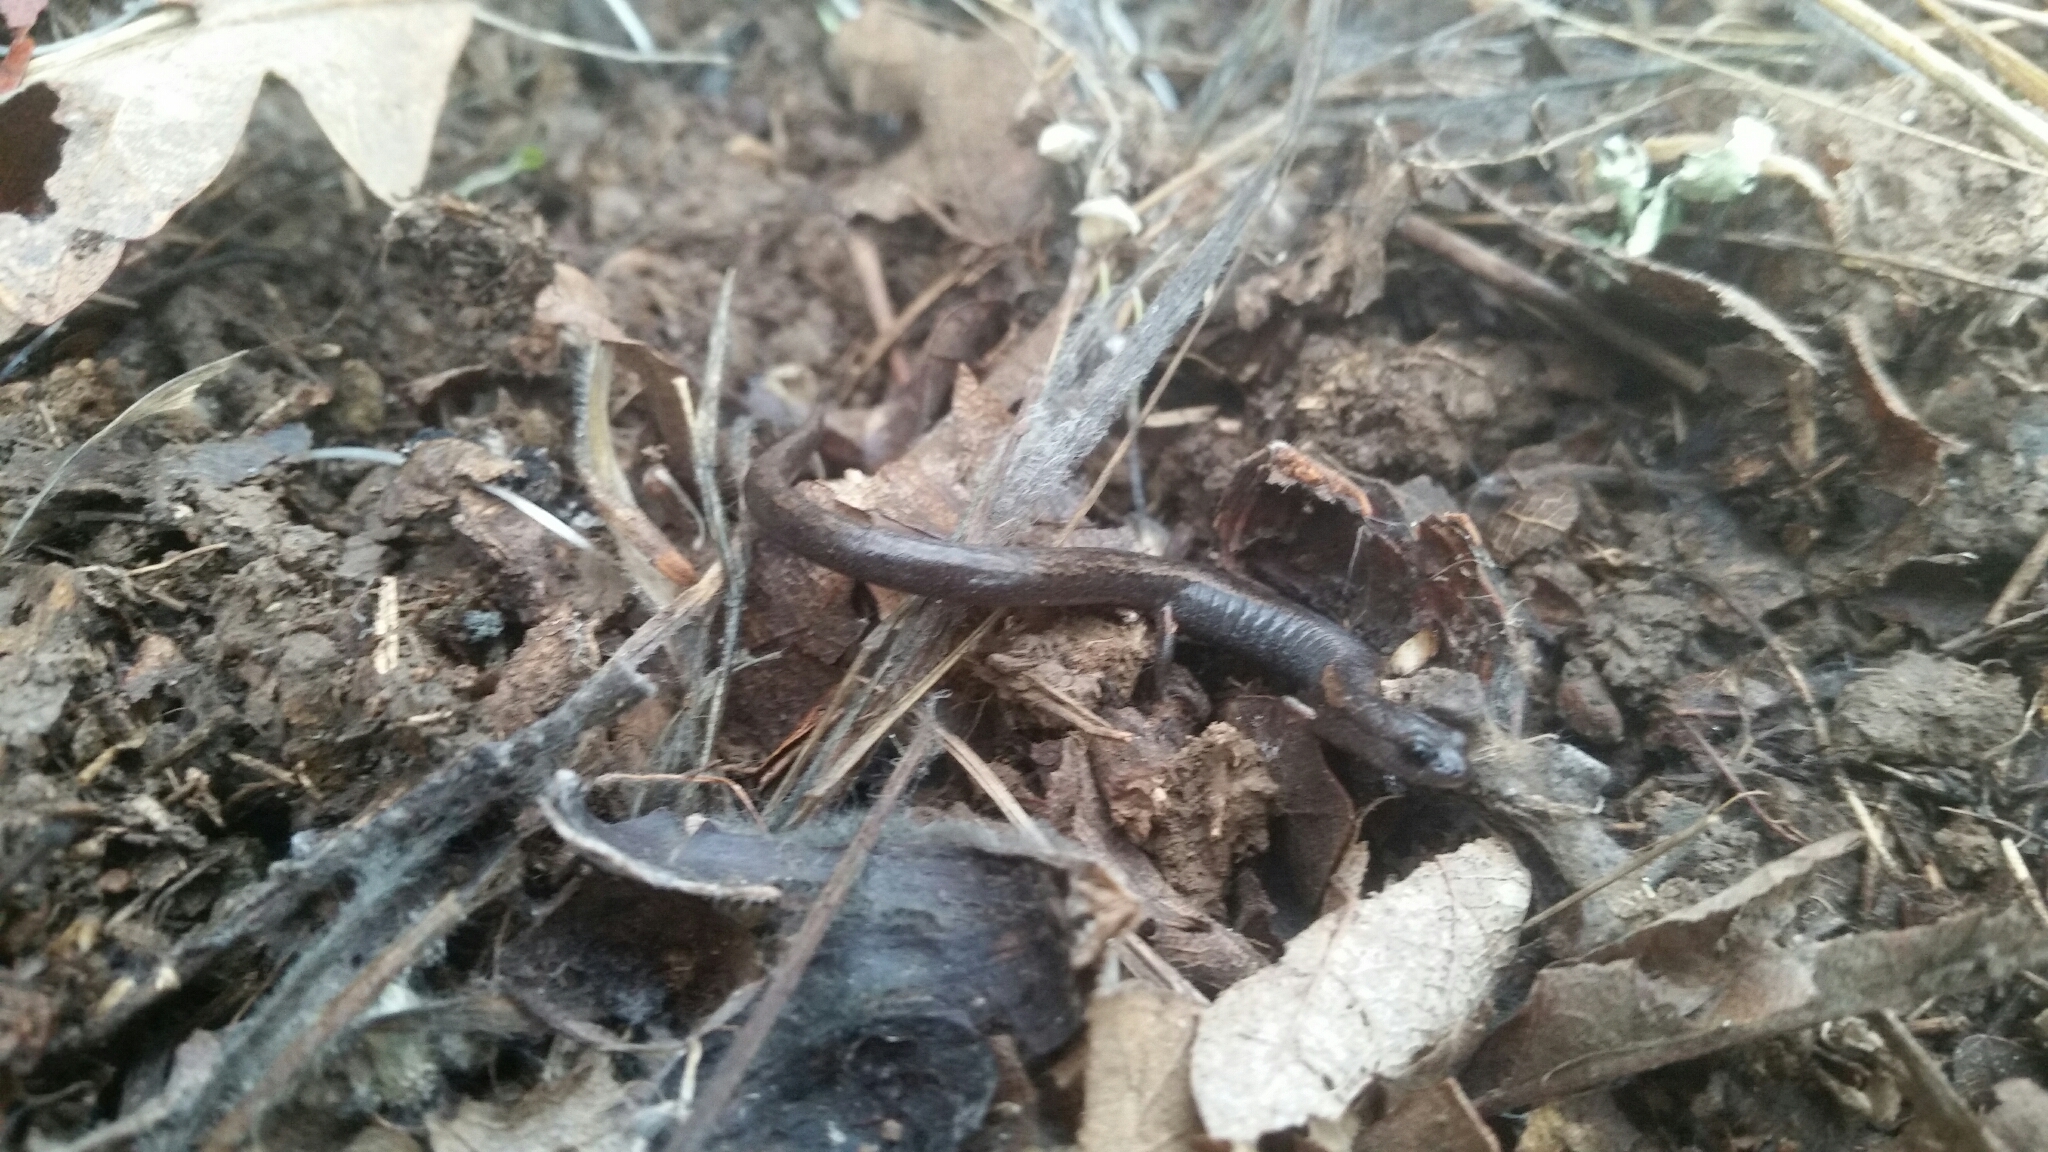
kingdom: Animalia
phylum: Chordata
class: Amphibia
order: Caudata
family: Plethodontidae
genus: Batrachoseps
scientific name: Batrachoseps attenuatus
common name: California slender salamander
